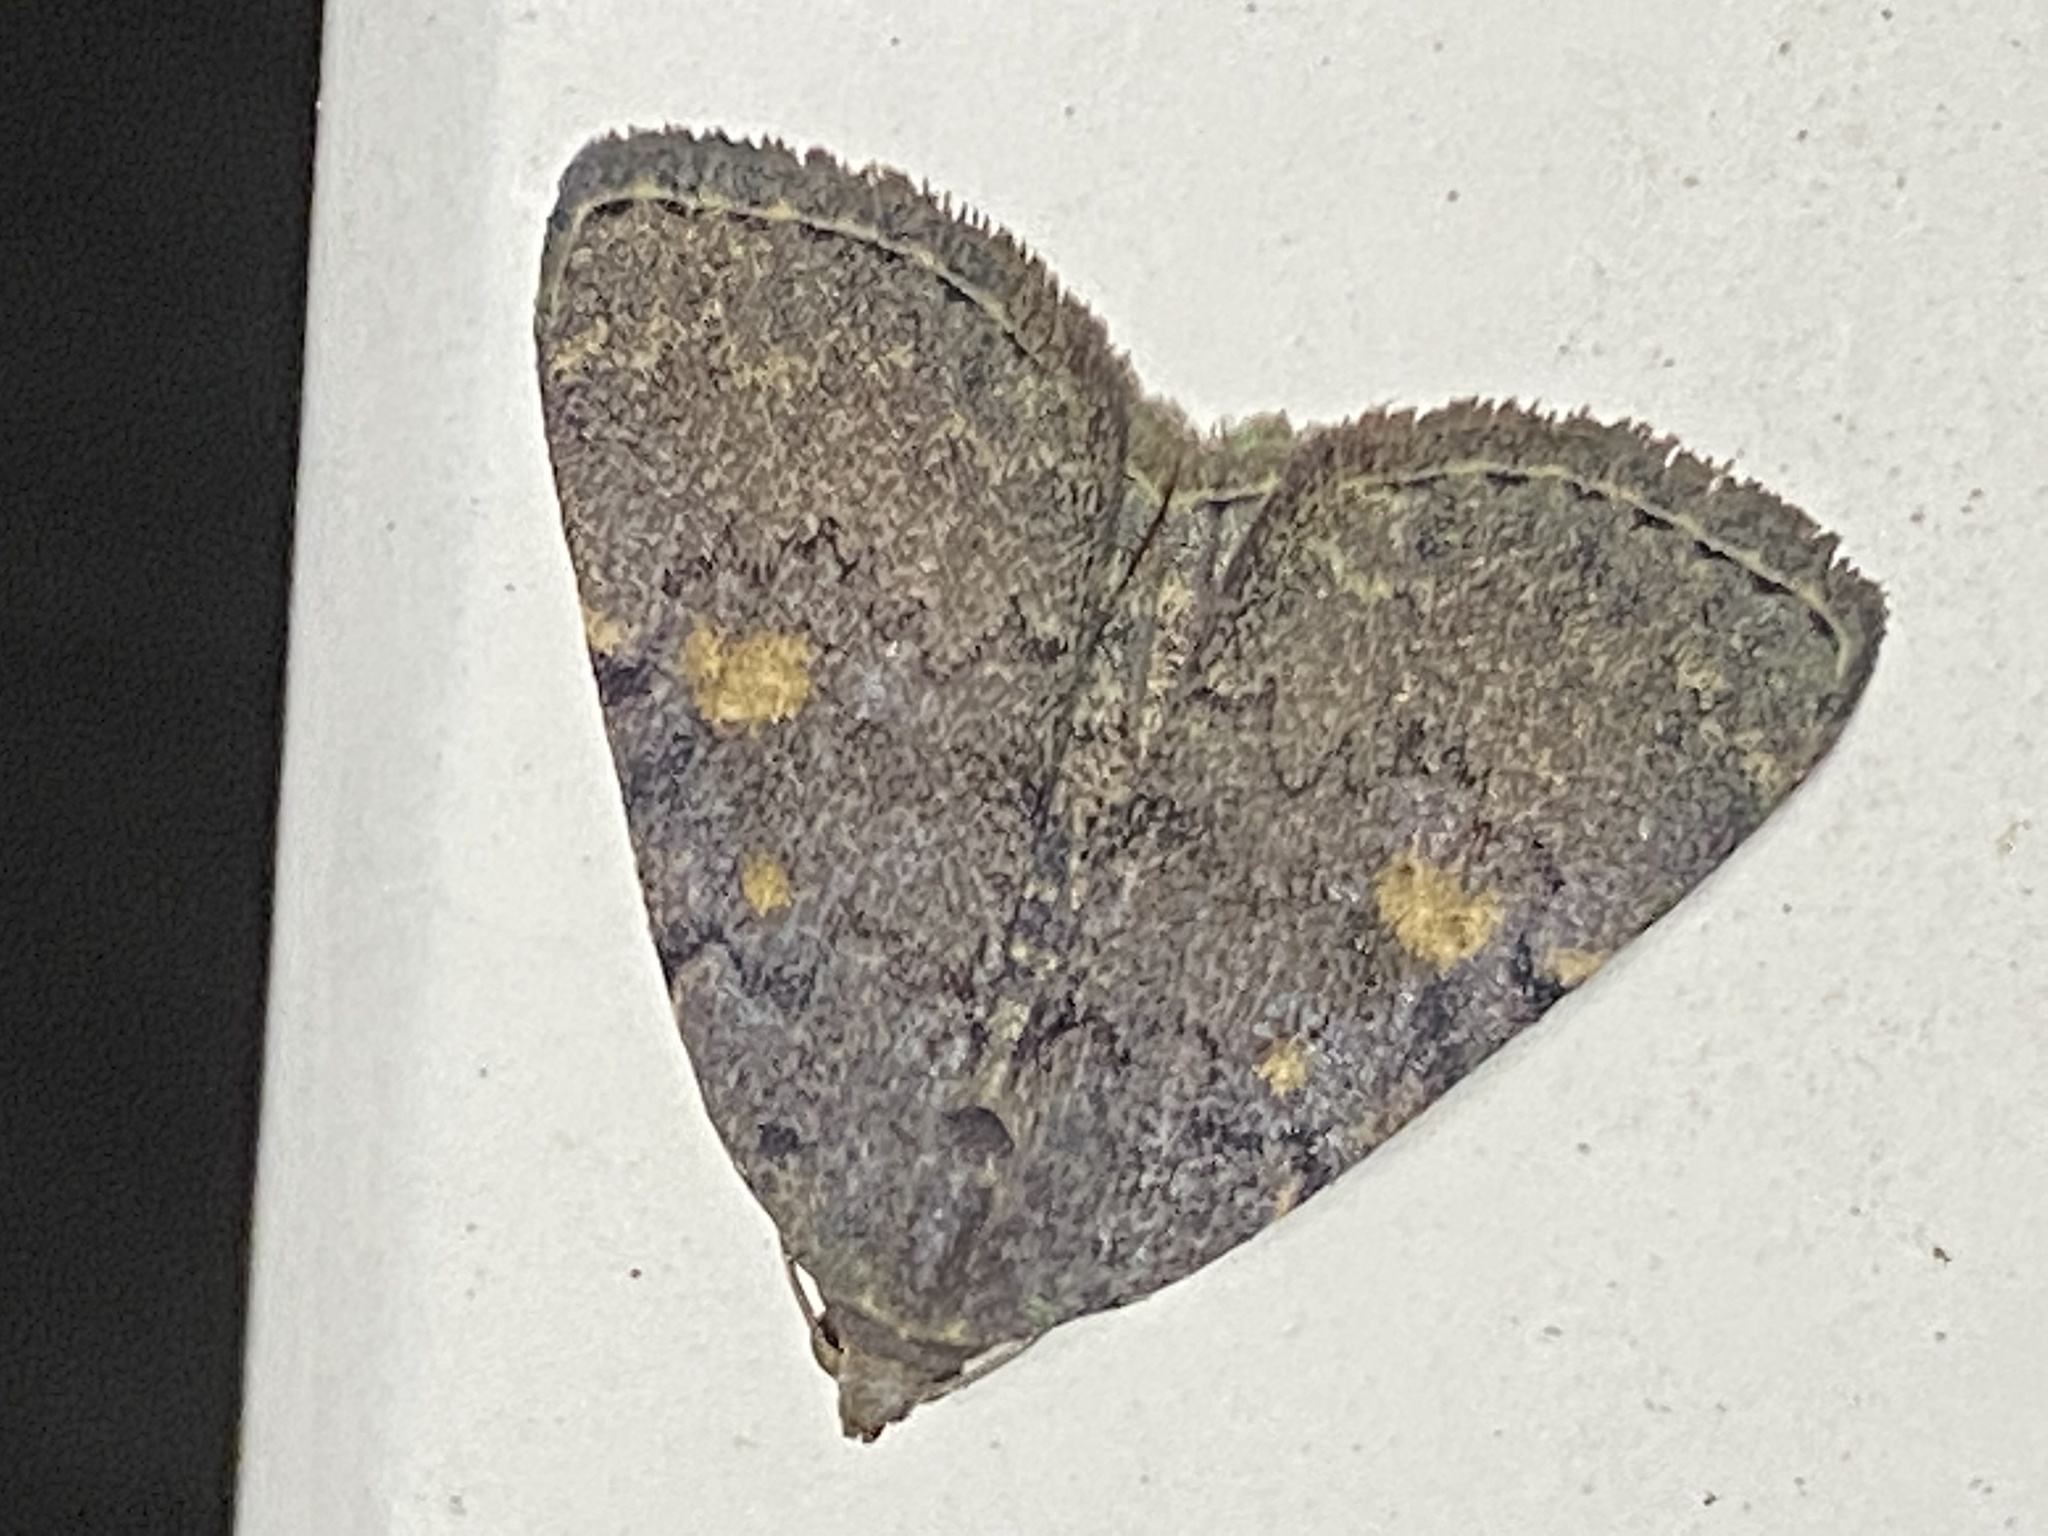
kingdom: Animalia
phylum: Arthropoda
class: Insecta
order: Lepidoptera
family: Erebidae
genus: Idia
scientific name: Idia aemula
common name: Common idia moth
